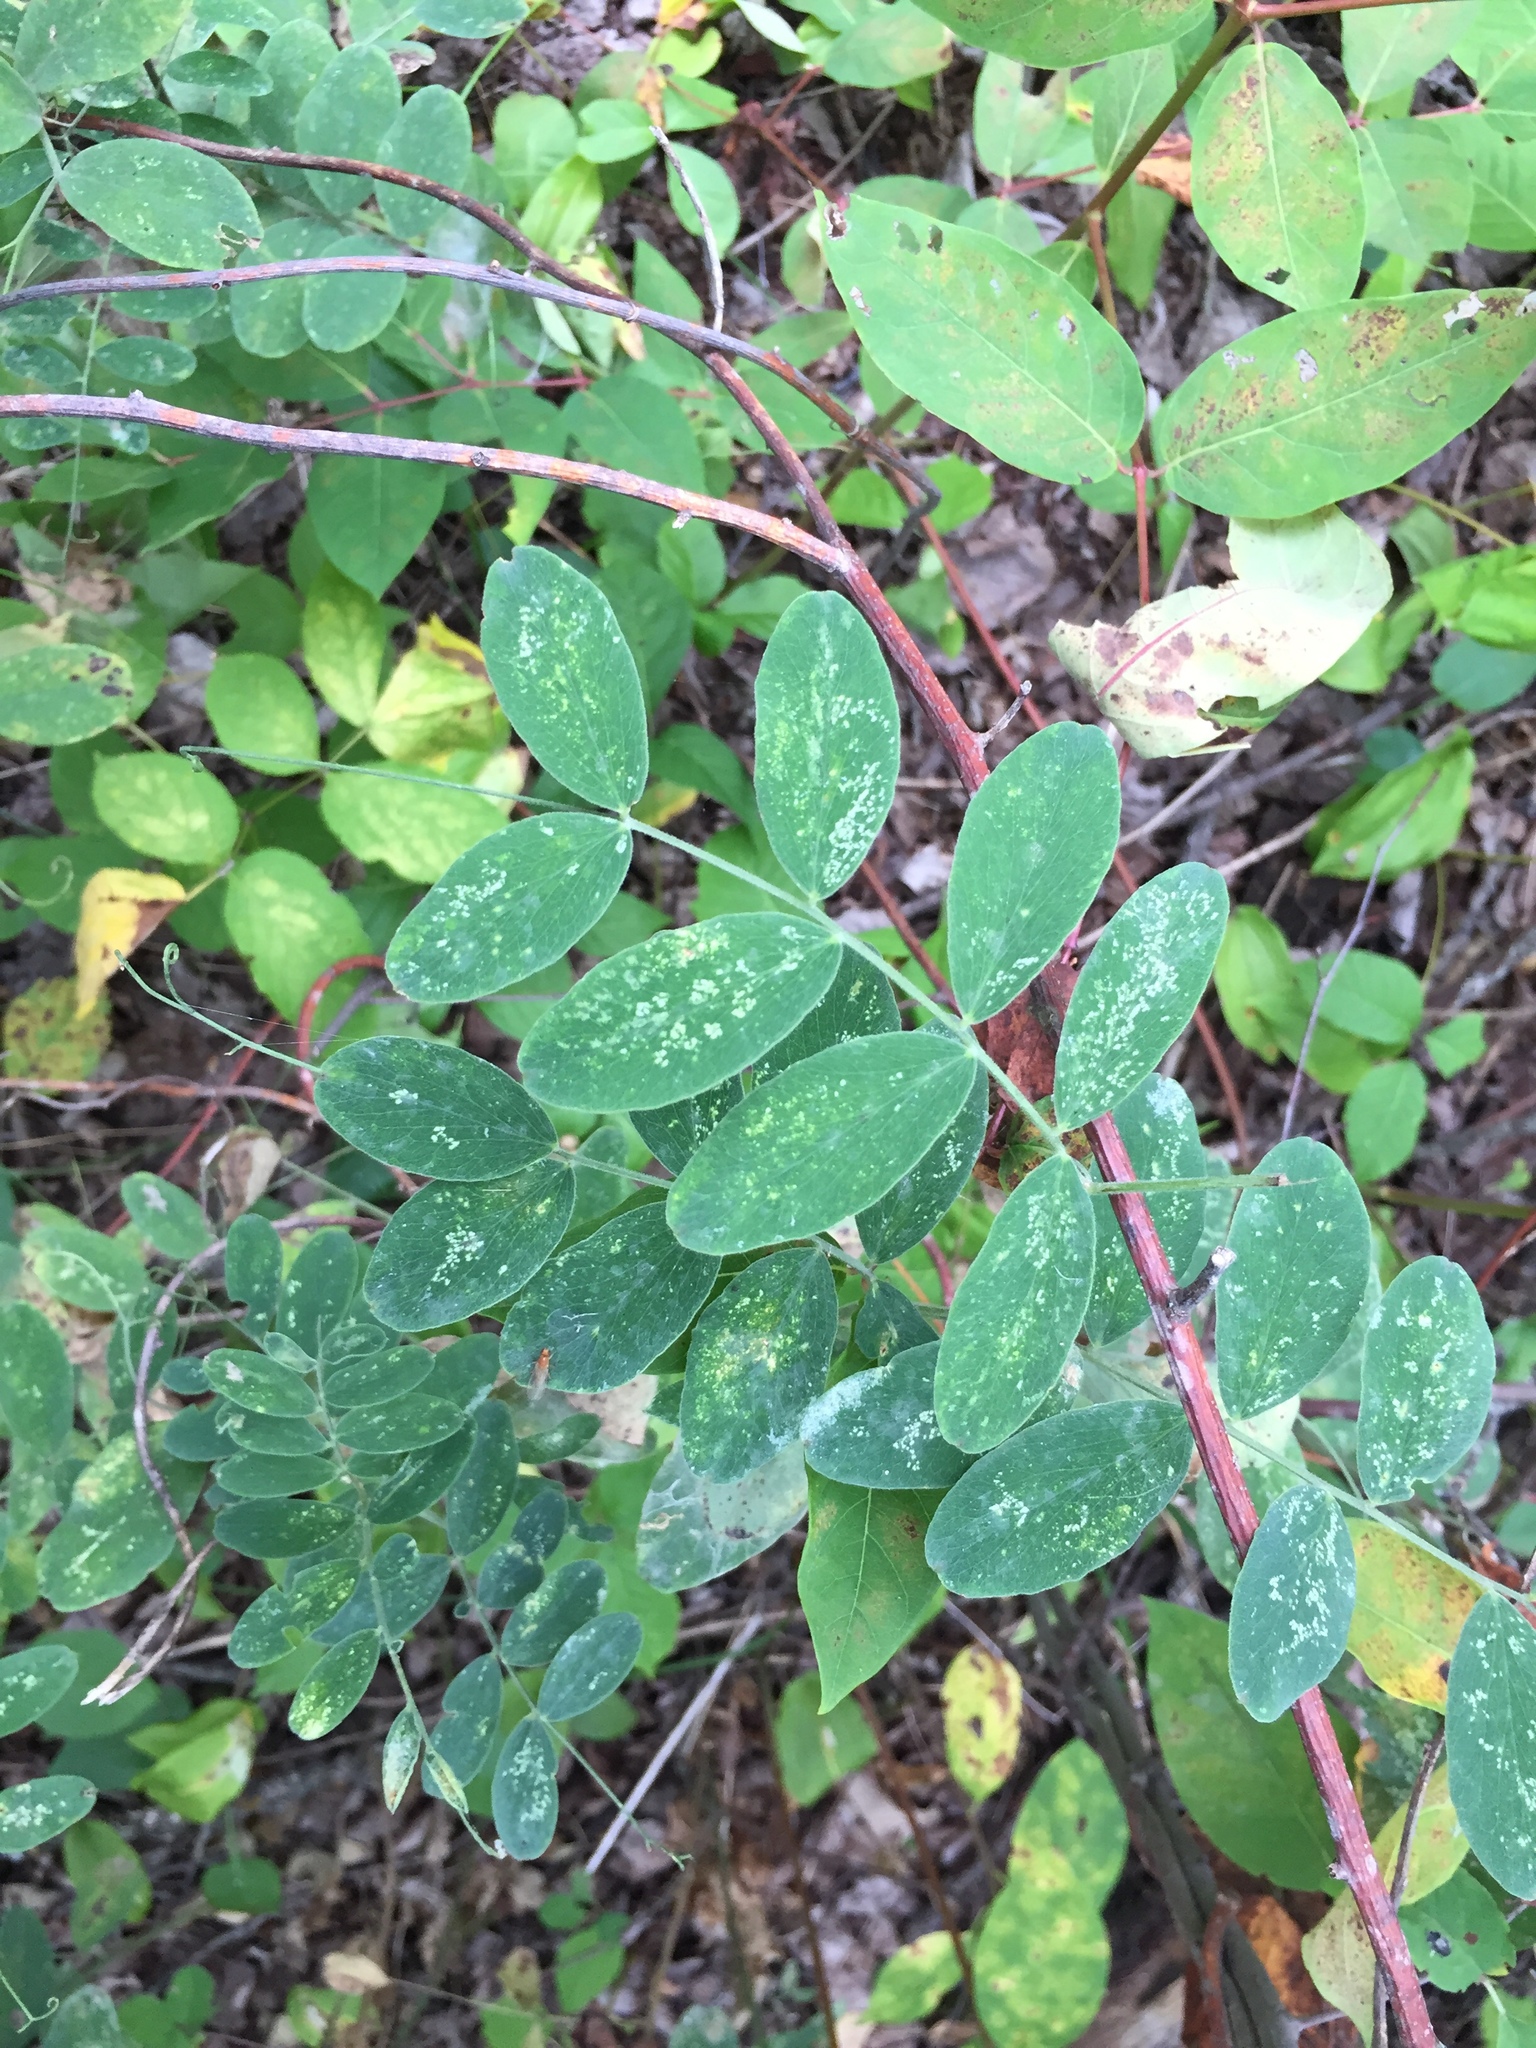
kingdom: Plantae
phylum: Tracheophyta
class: Magnoliopsida
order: Fabales
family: Fabaceae
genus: Lathyrus
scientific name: Lathyrus venosus
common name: Forest-pea
